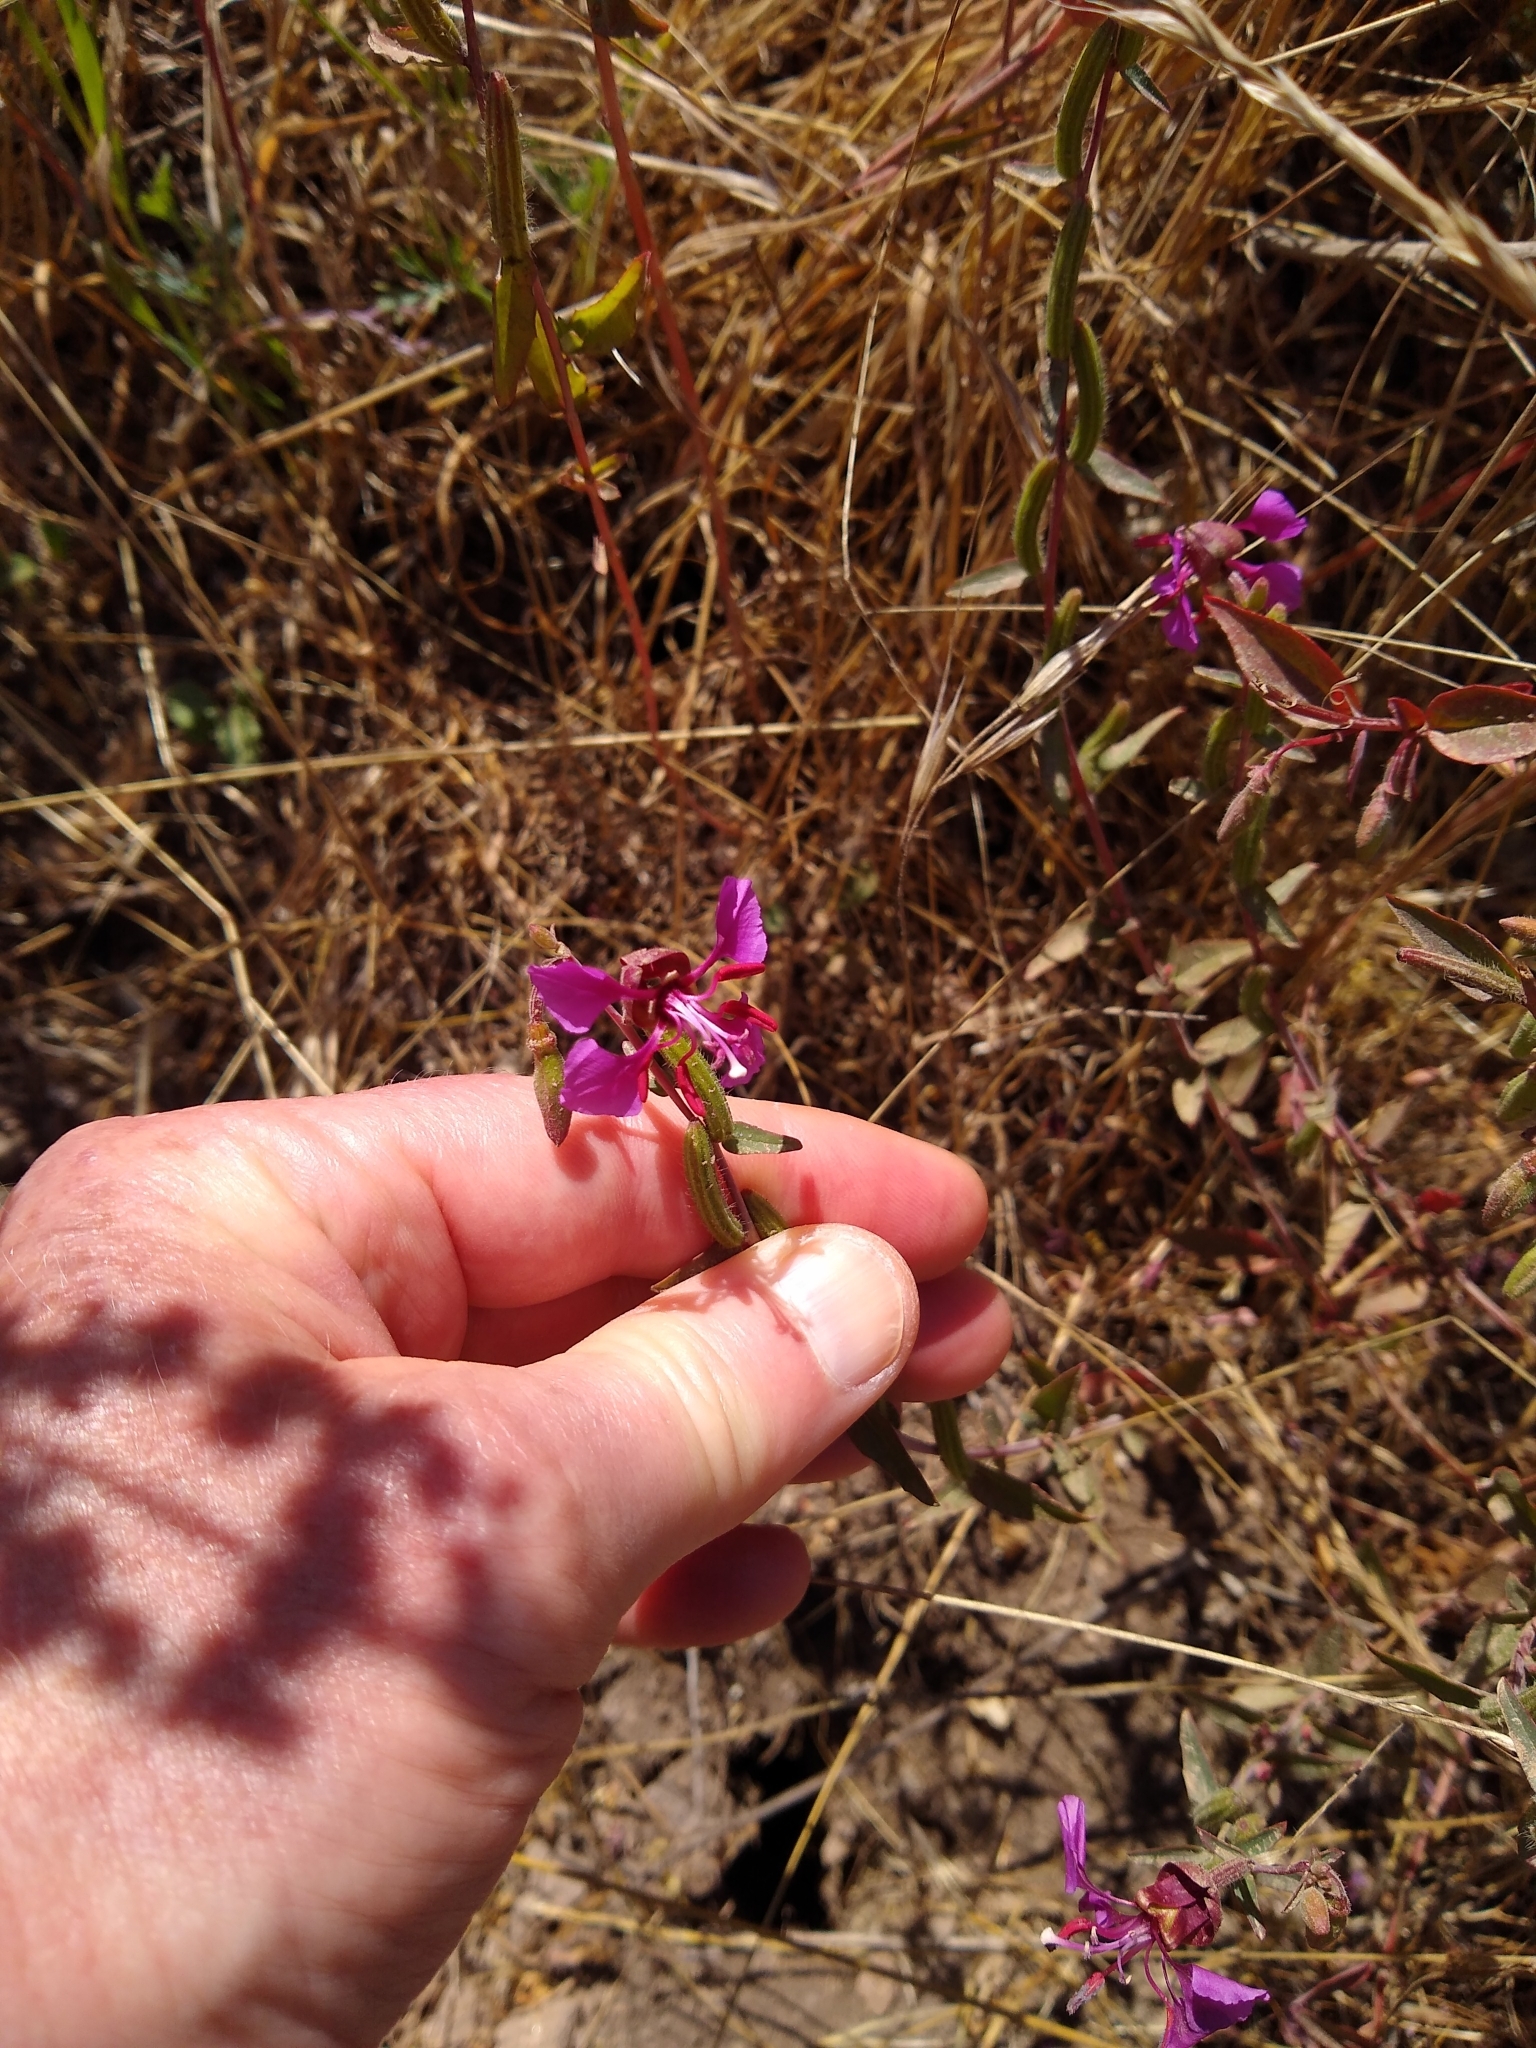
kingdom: Plantae
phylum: Tracheophyta
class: Magnoliopsida
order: Myrtales
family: Onagraceae
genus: Clarkia
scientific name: Clarkia unguiculata
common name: Clarkia
